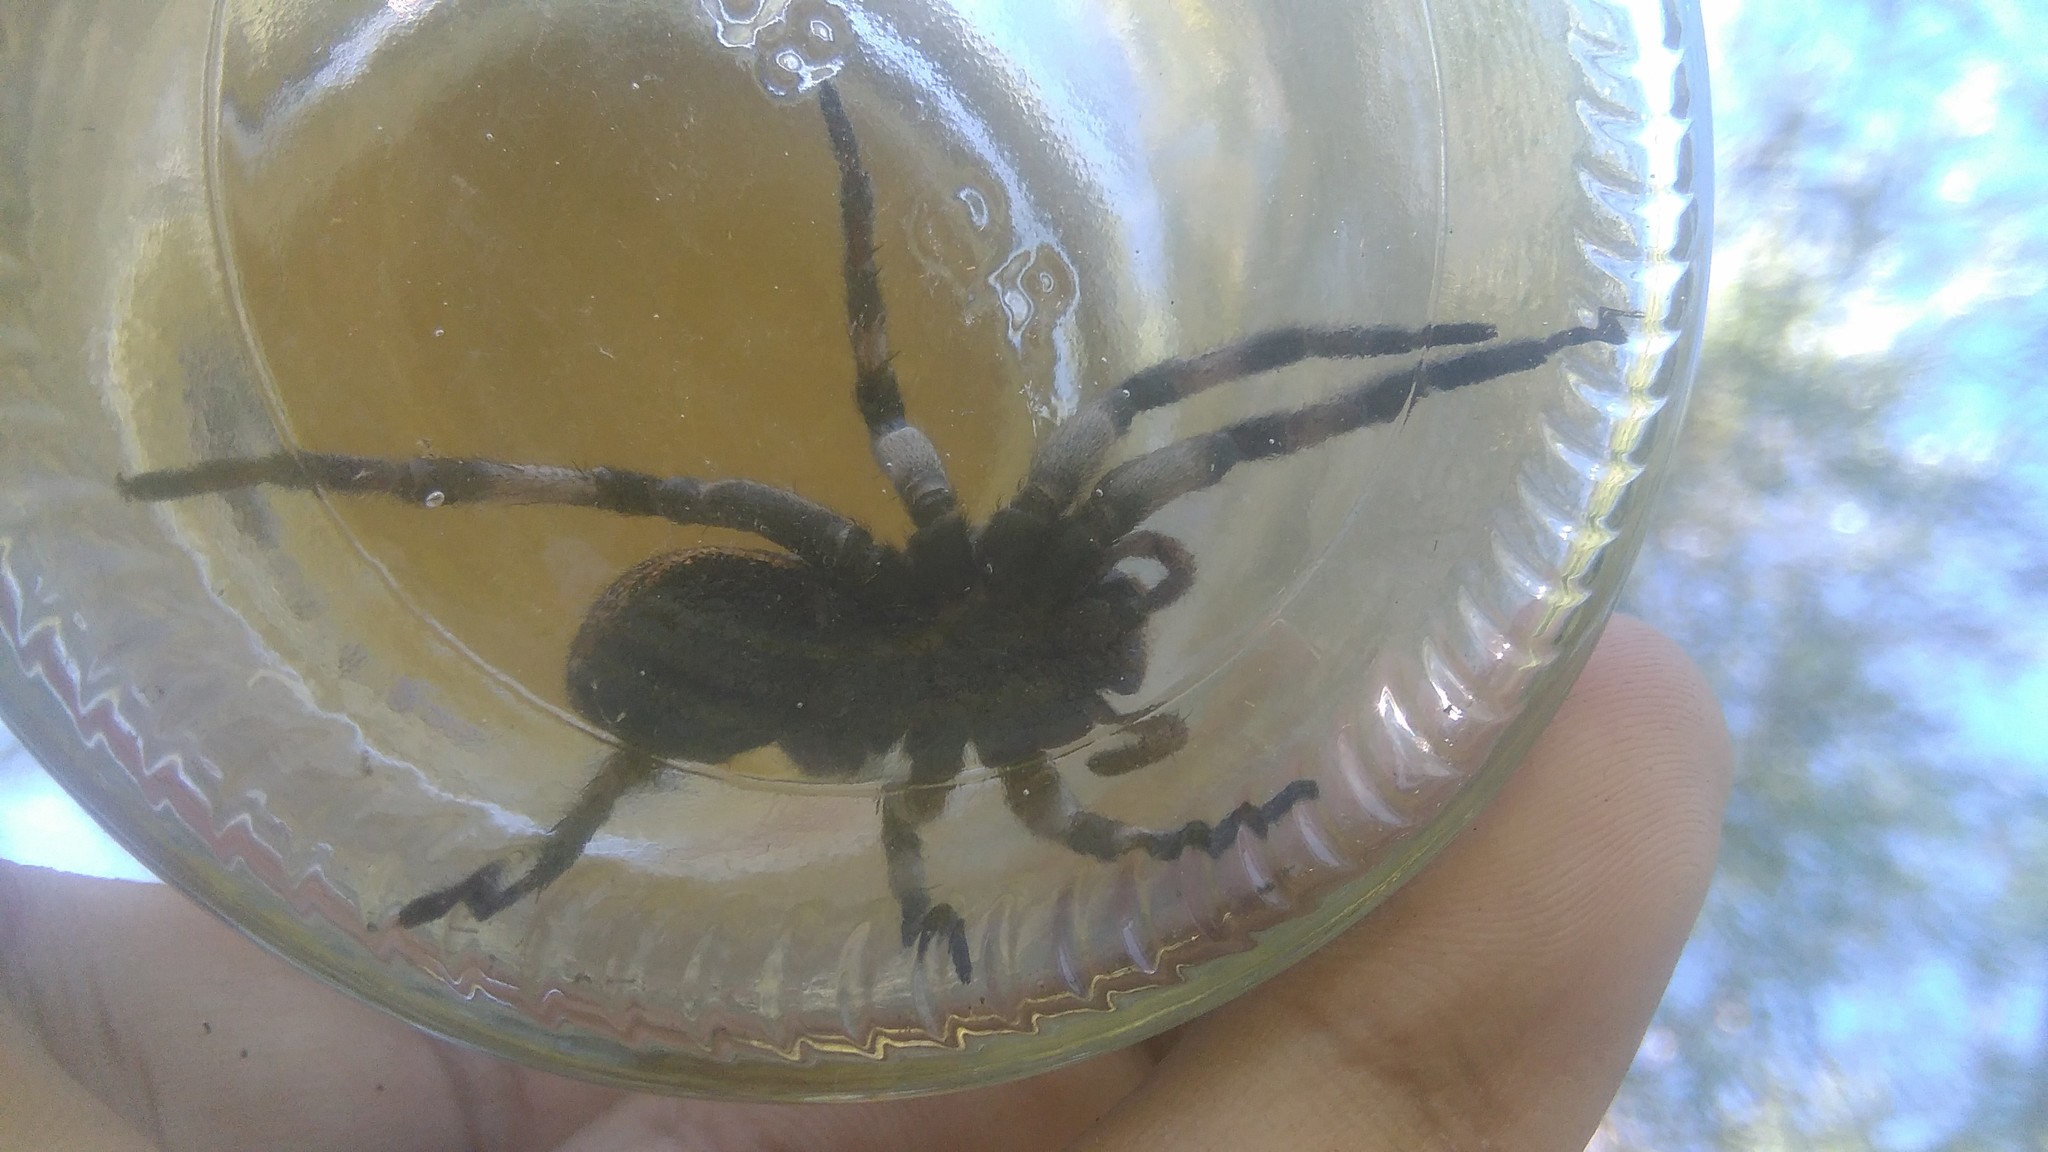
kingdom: Animalia
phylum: Arthropoda
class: Arachnida
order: Araneae
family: Lycosidae
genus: Lycosa
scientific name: Lycosa pampeana
